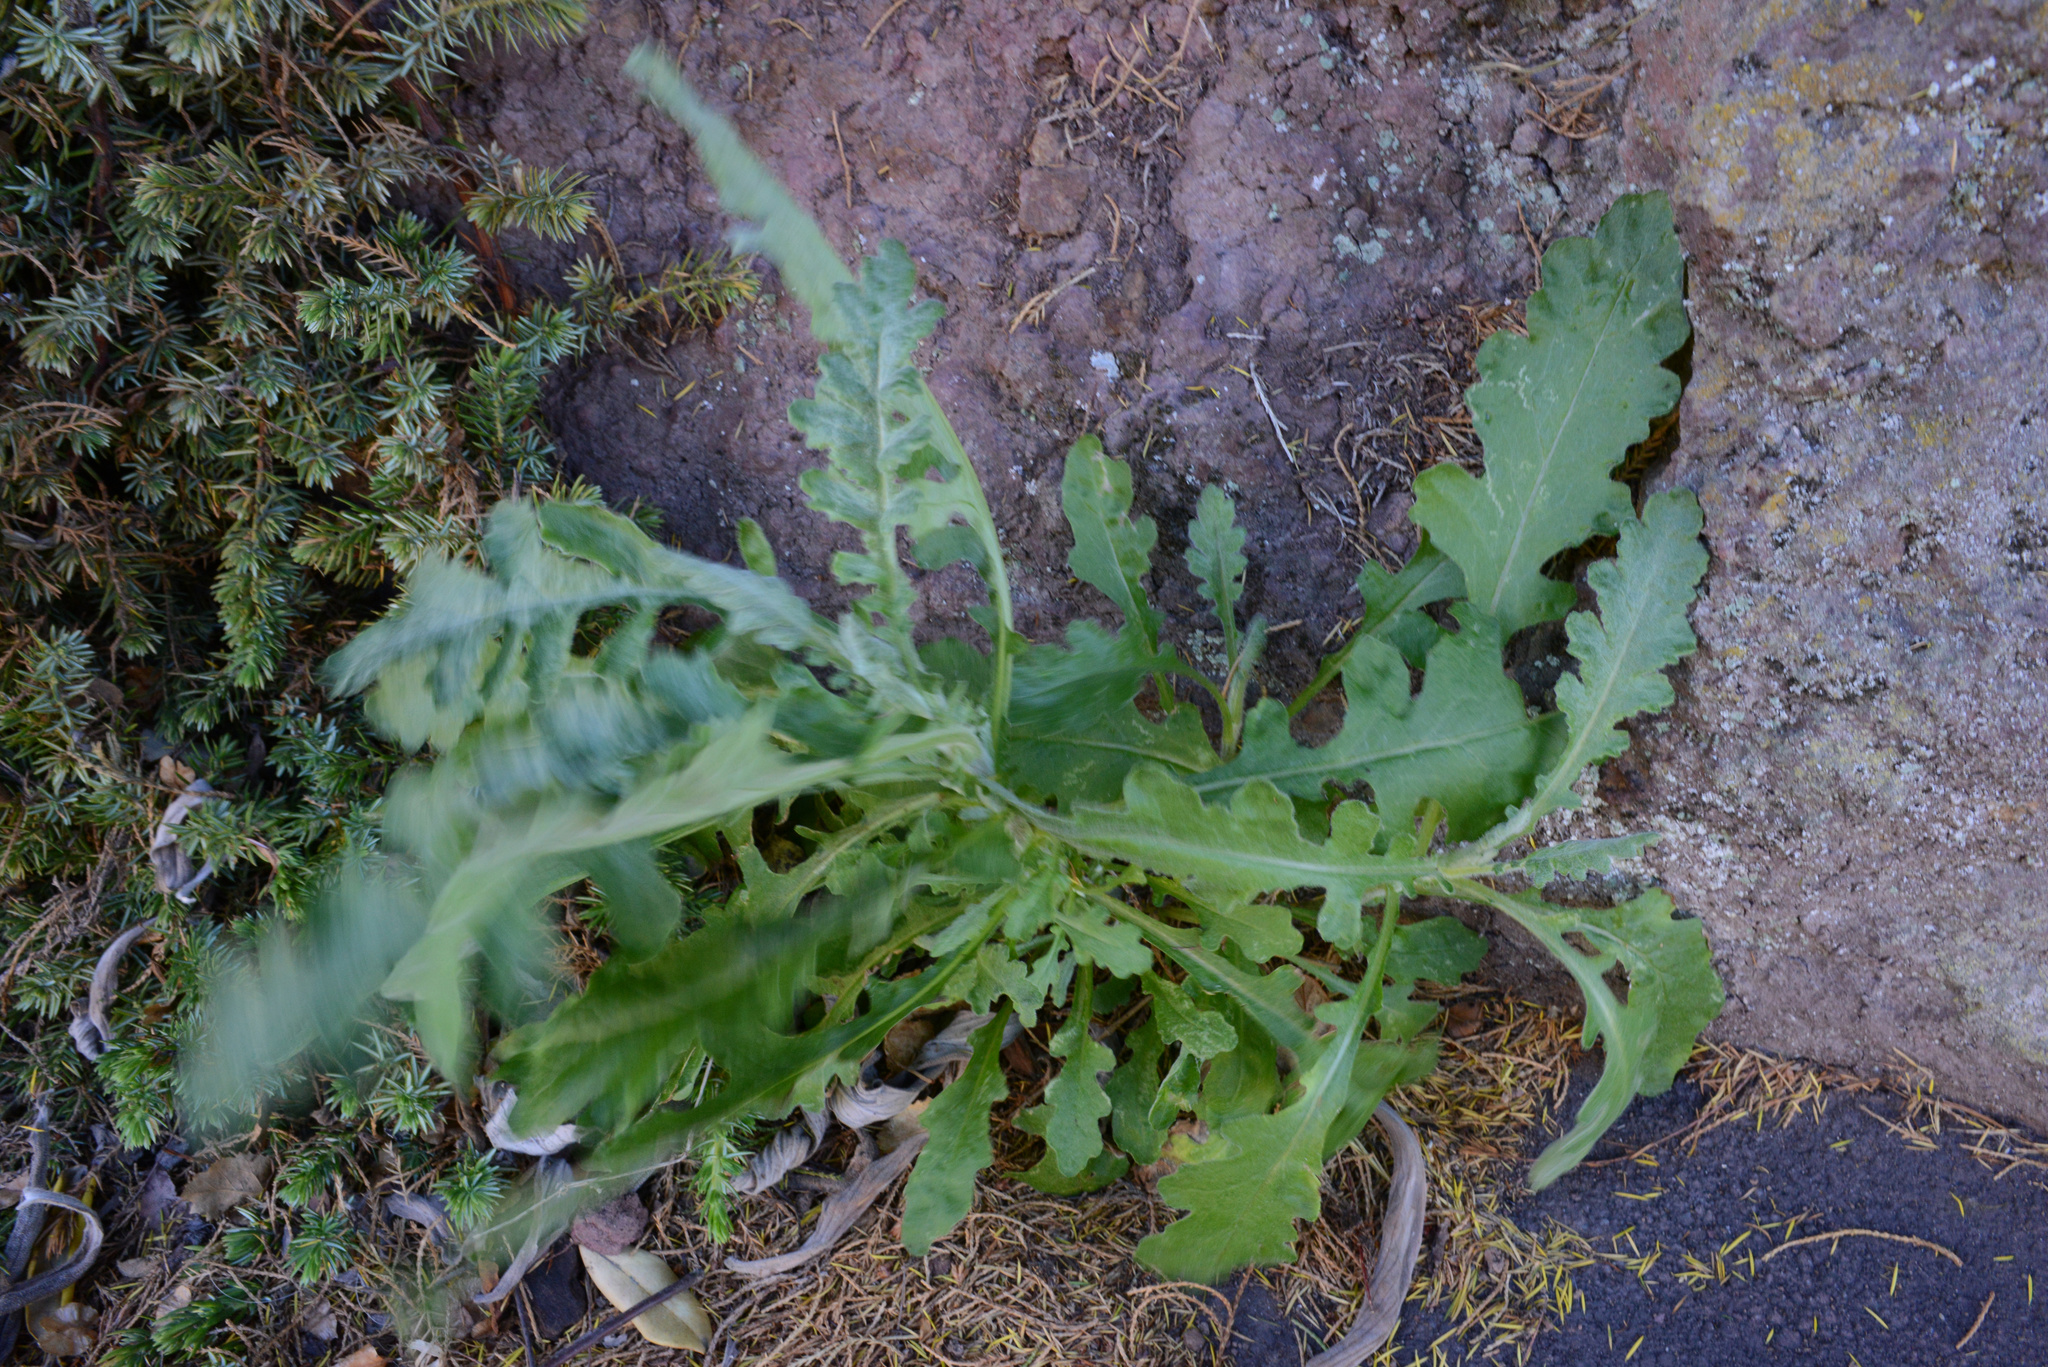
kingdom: Plantae
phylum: Tracheophyta
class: Magnoliopsida
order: Asterales
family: Asteraceae
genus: Senecio
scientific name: Senecio glomeratus
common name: Cutleaf burnweed
